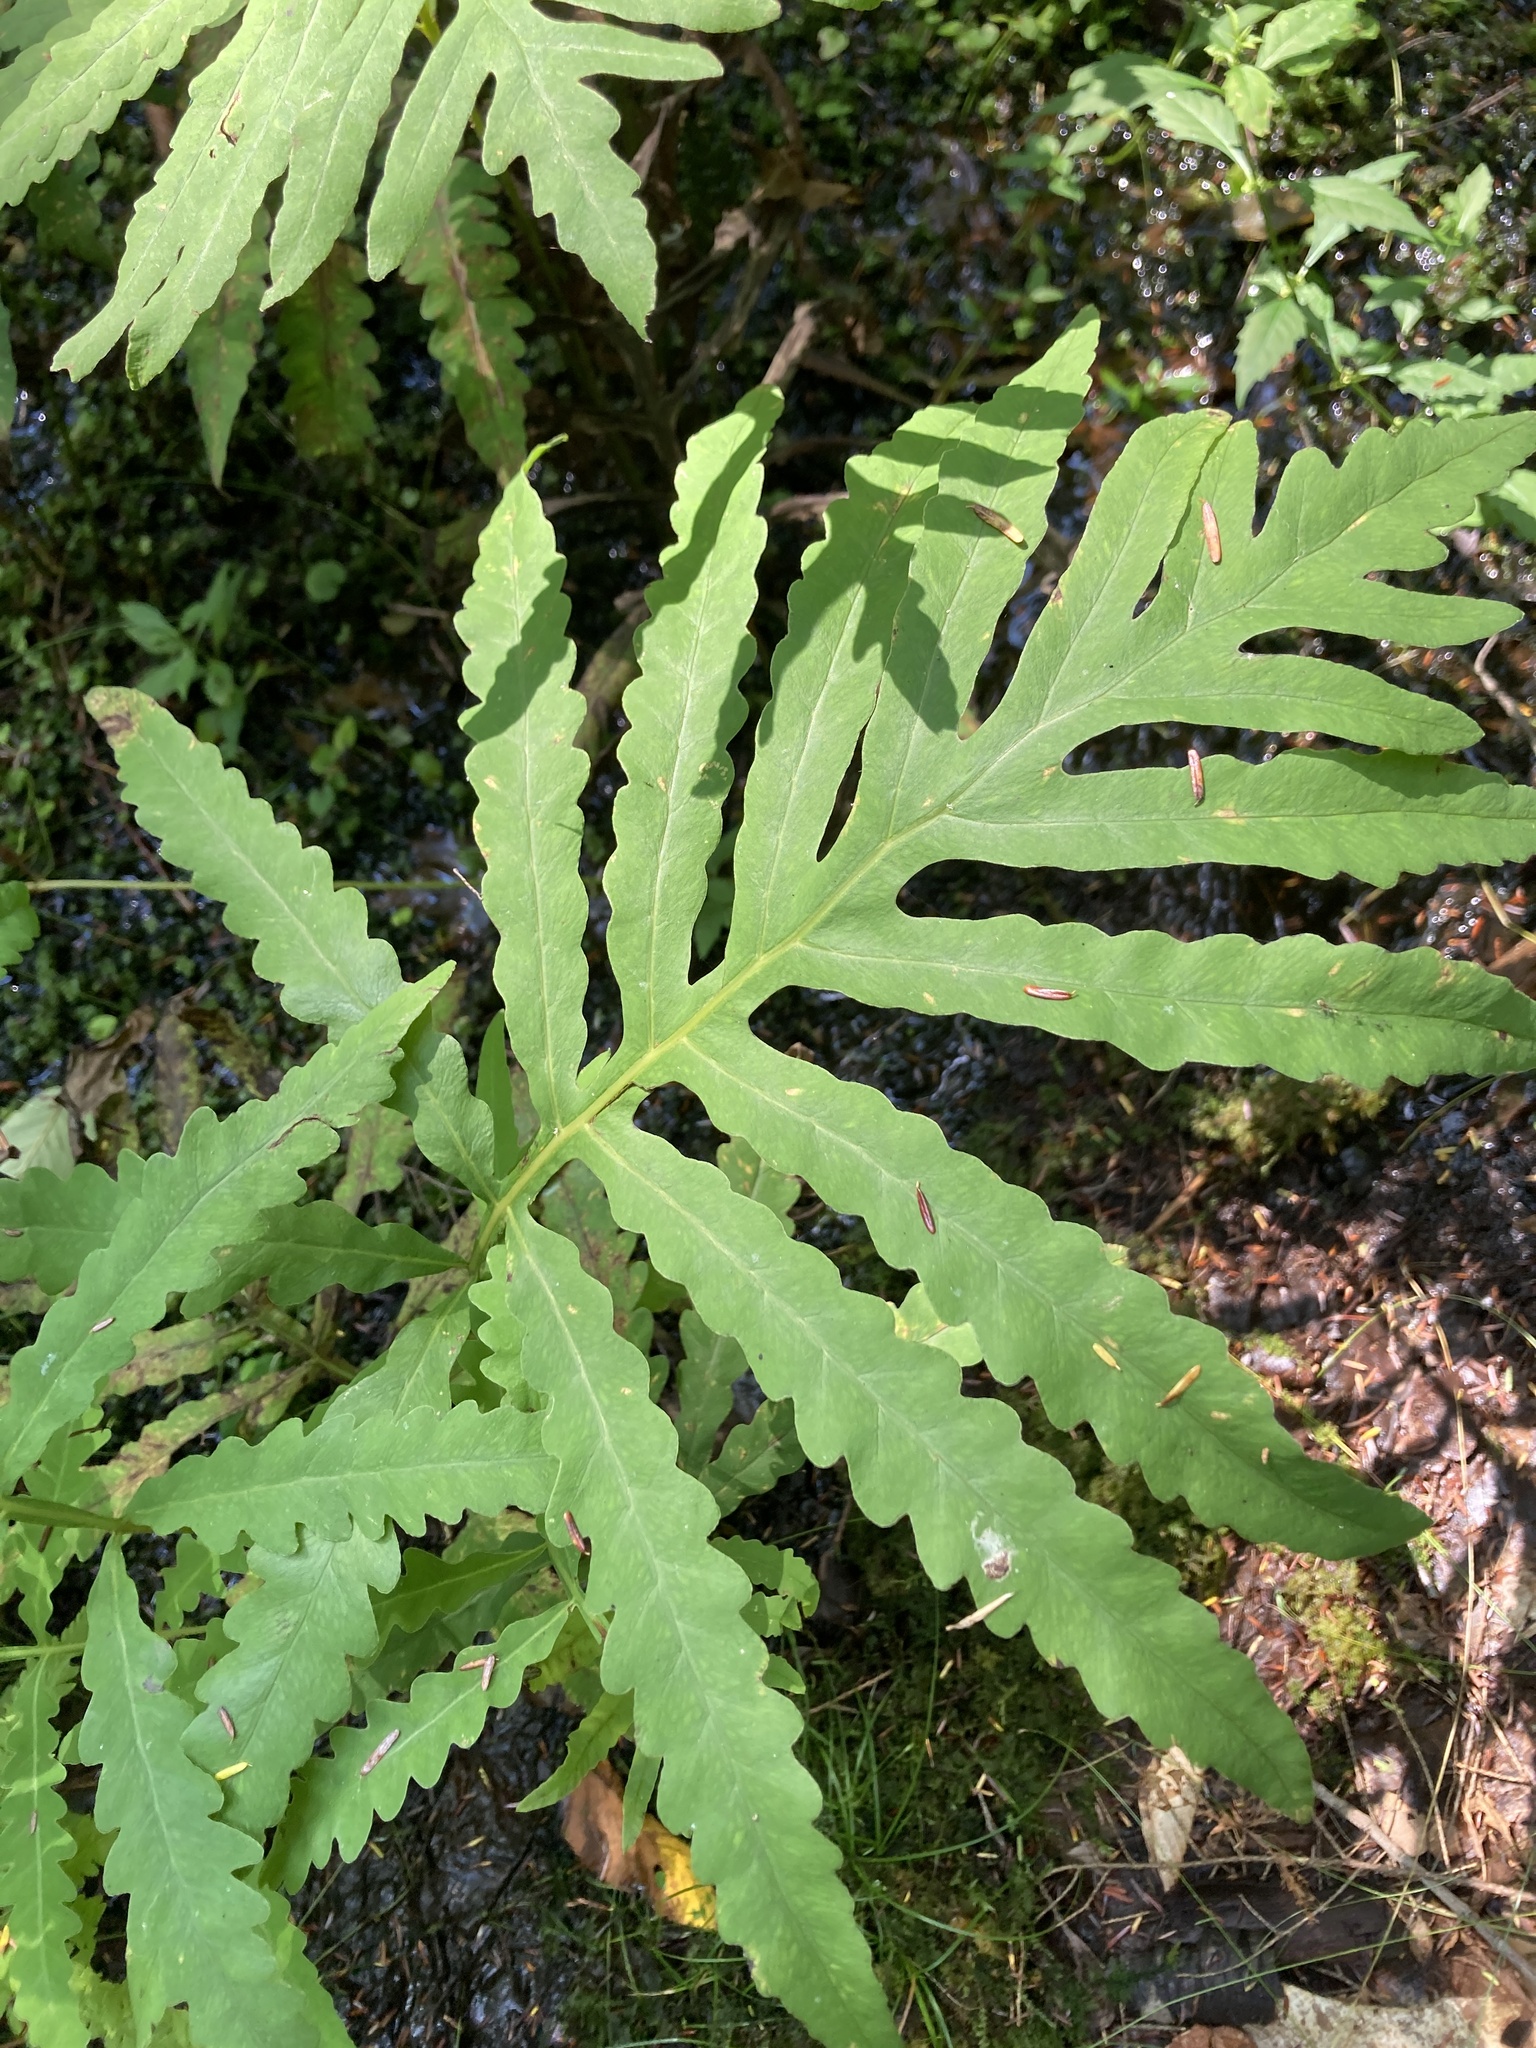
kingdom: Plantae
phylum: Tracheophyta
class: Polypodiopsida
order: Polypodiales
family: Onocleaceae
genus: Onoclea
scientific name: Onoclea sensibilis
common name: Sensitive fern
